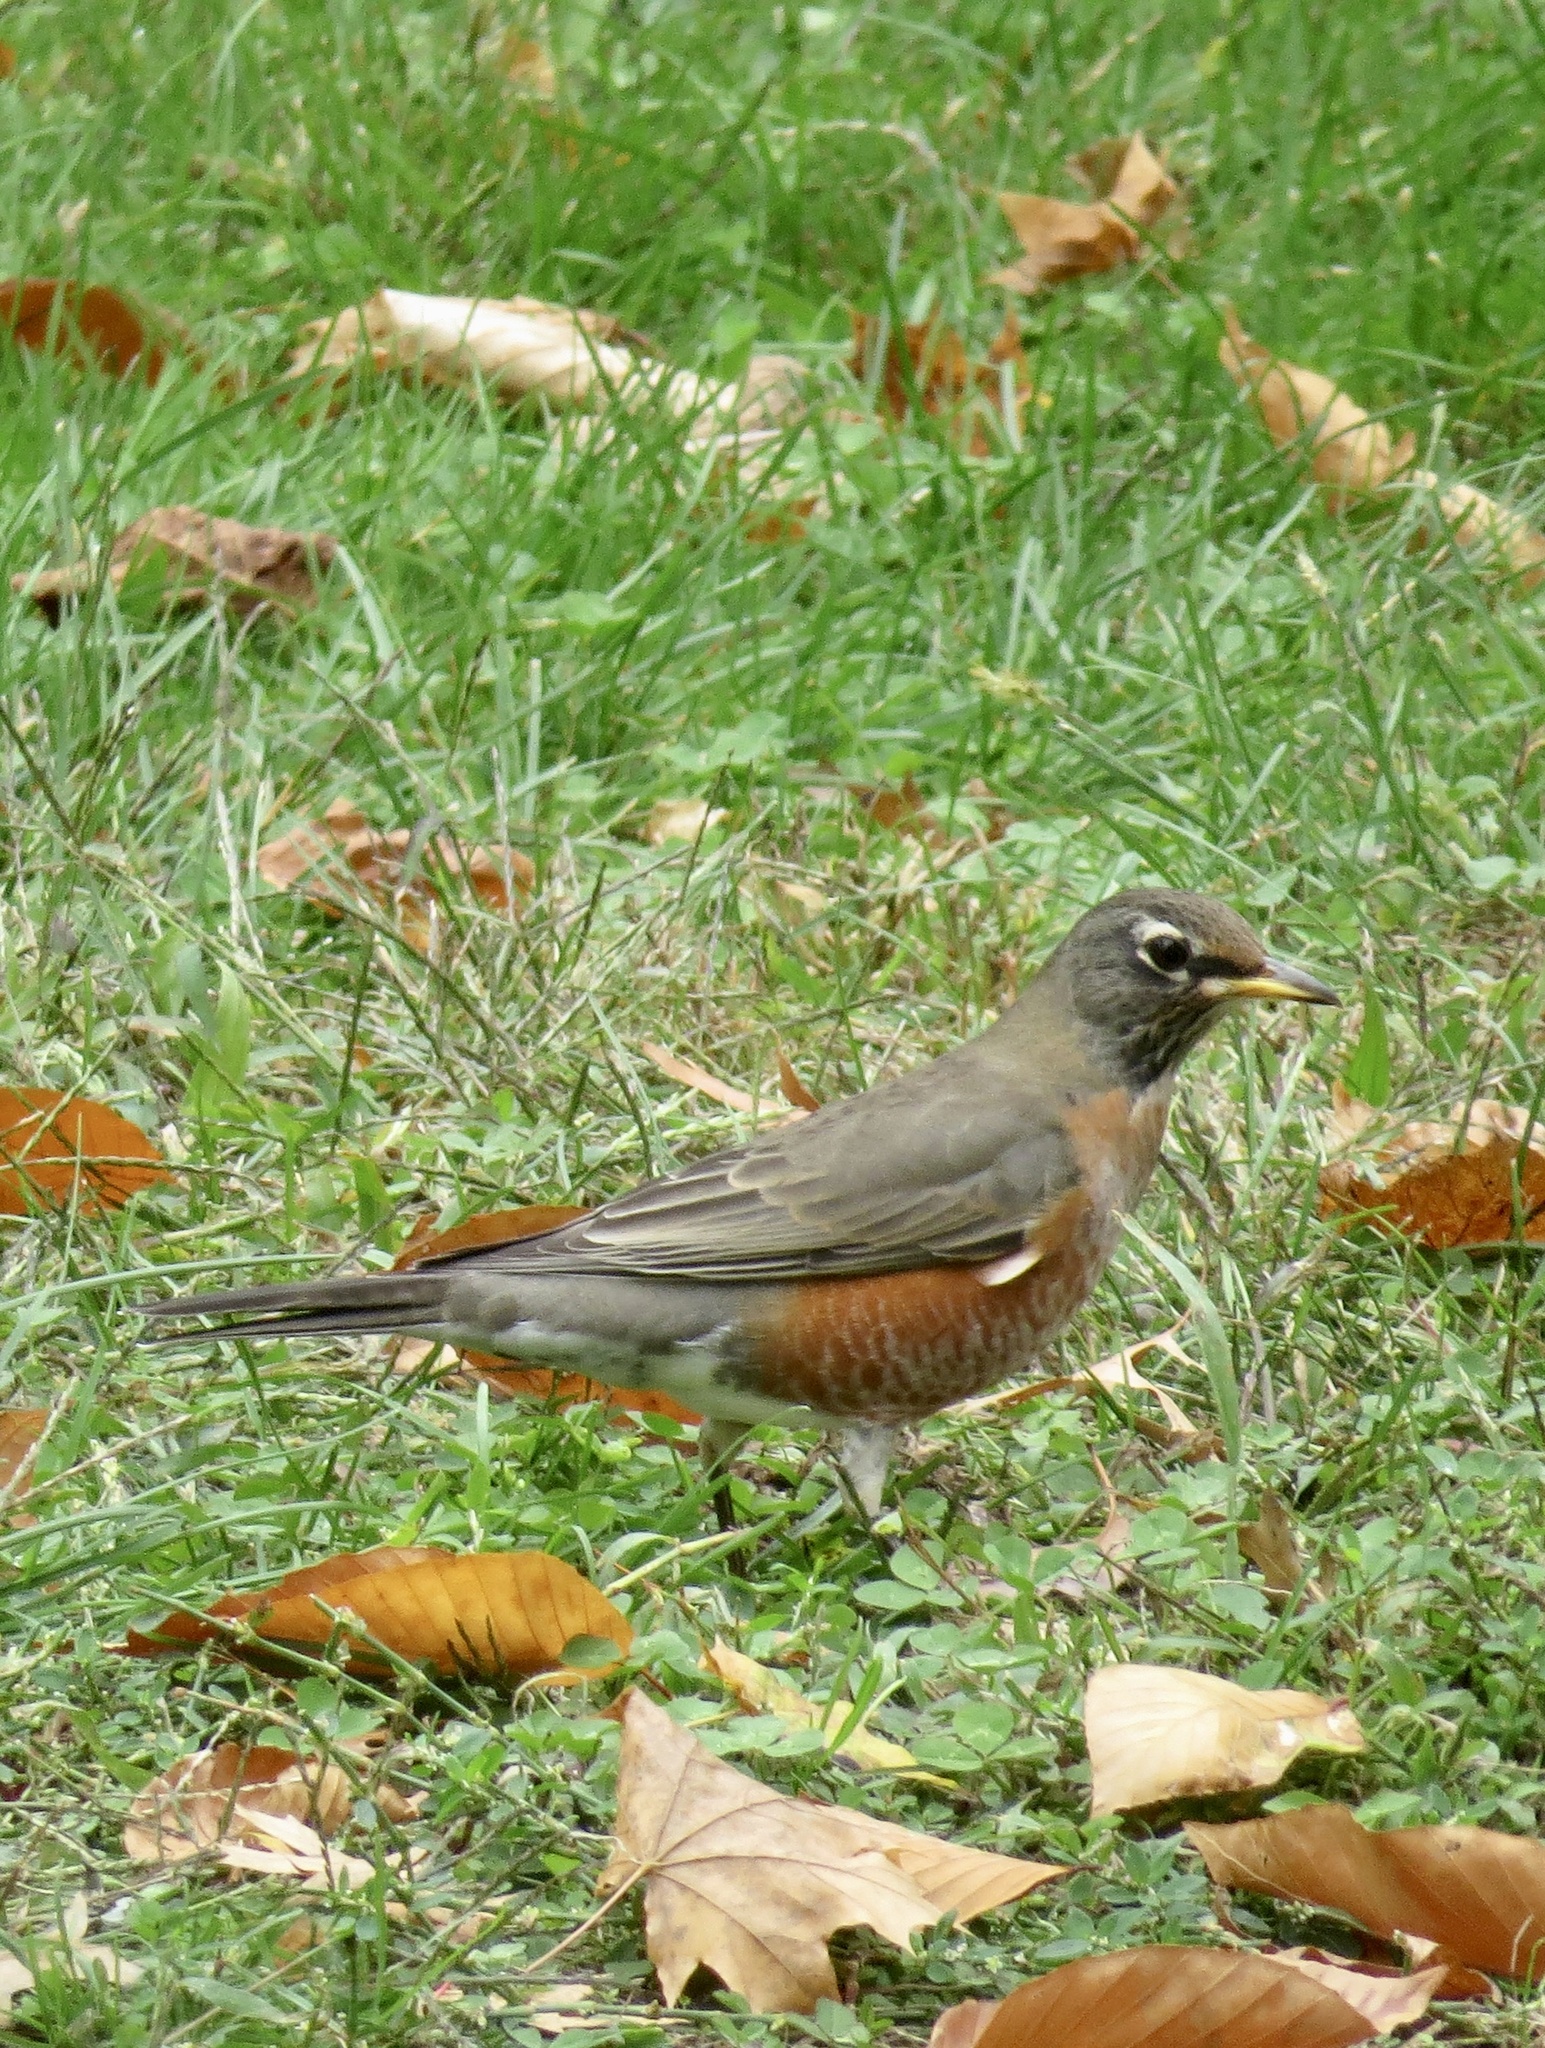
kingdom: Animalia
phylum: Chordata
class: Aves
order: Passeriformes
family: Turdidae
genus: Turdus
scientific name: Turdus migratorius
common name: American robin
